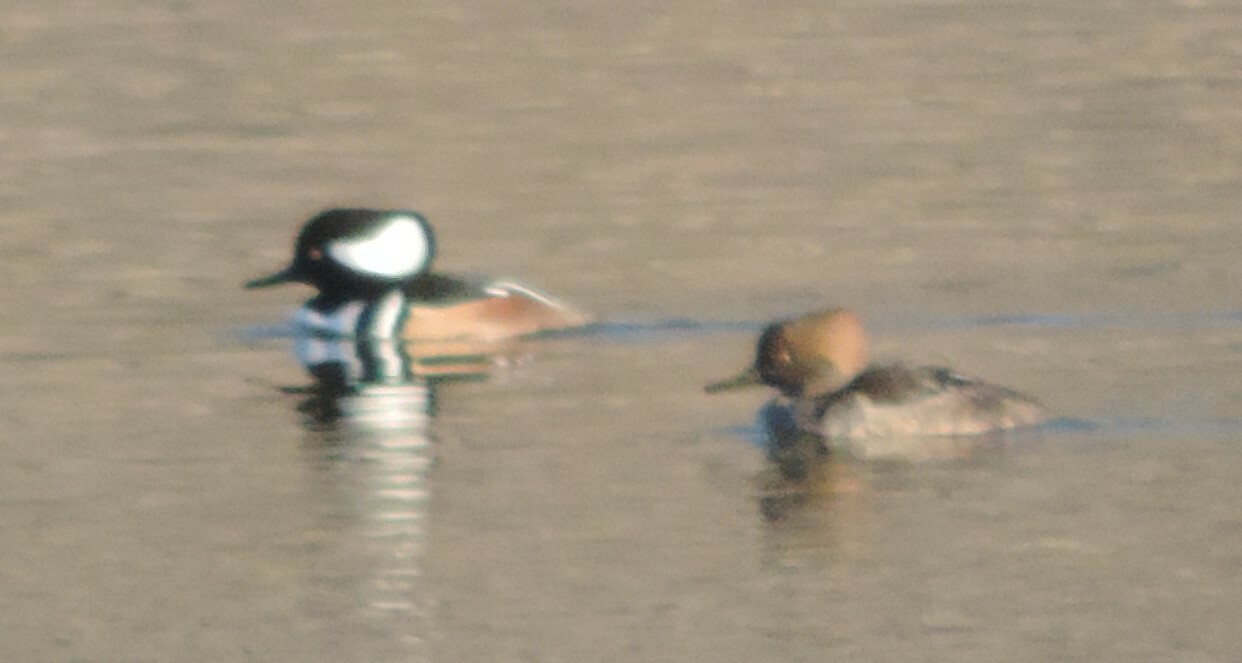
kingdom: Animalia
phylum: Chordata
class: Aves
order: Anseriformes
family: Anatidae
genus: Lophodytes
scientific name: Lophodytes cucullatus
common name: Hooded merganser
